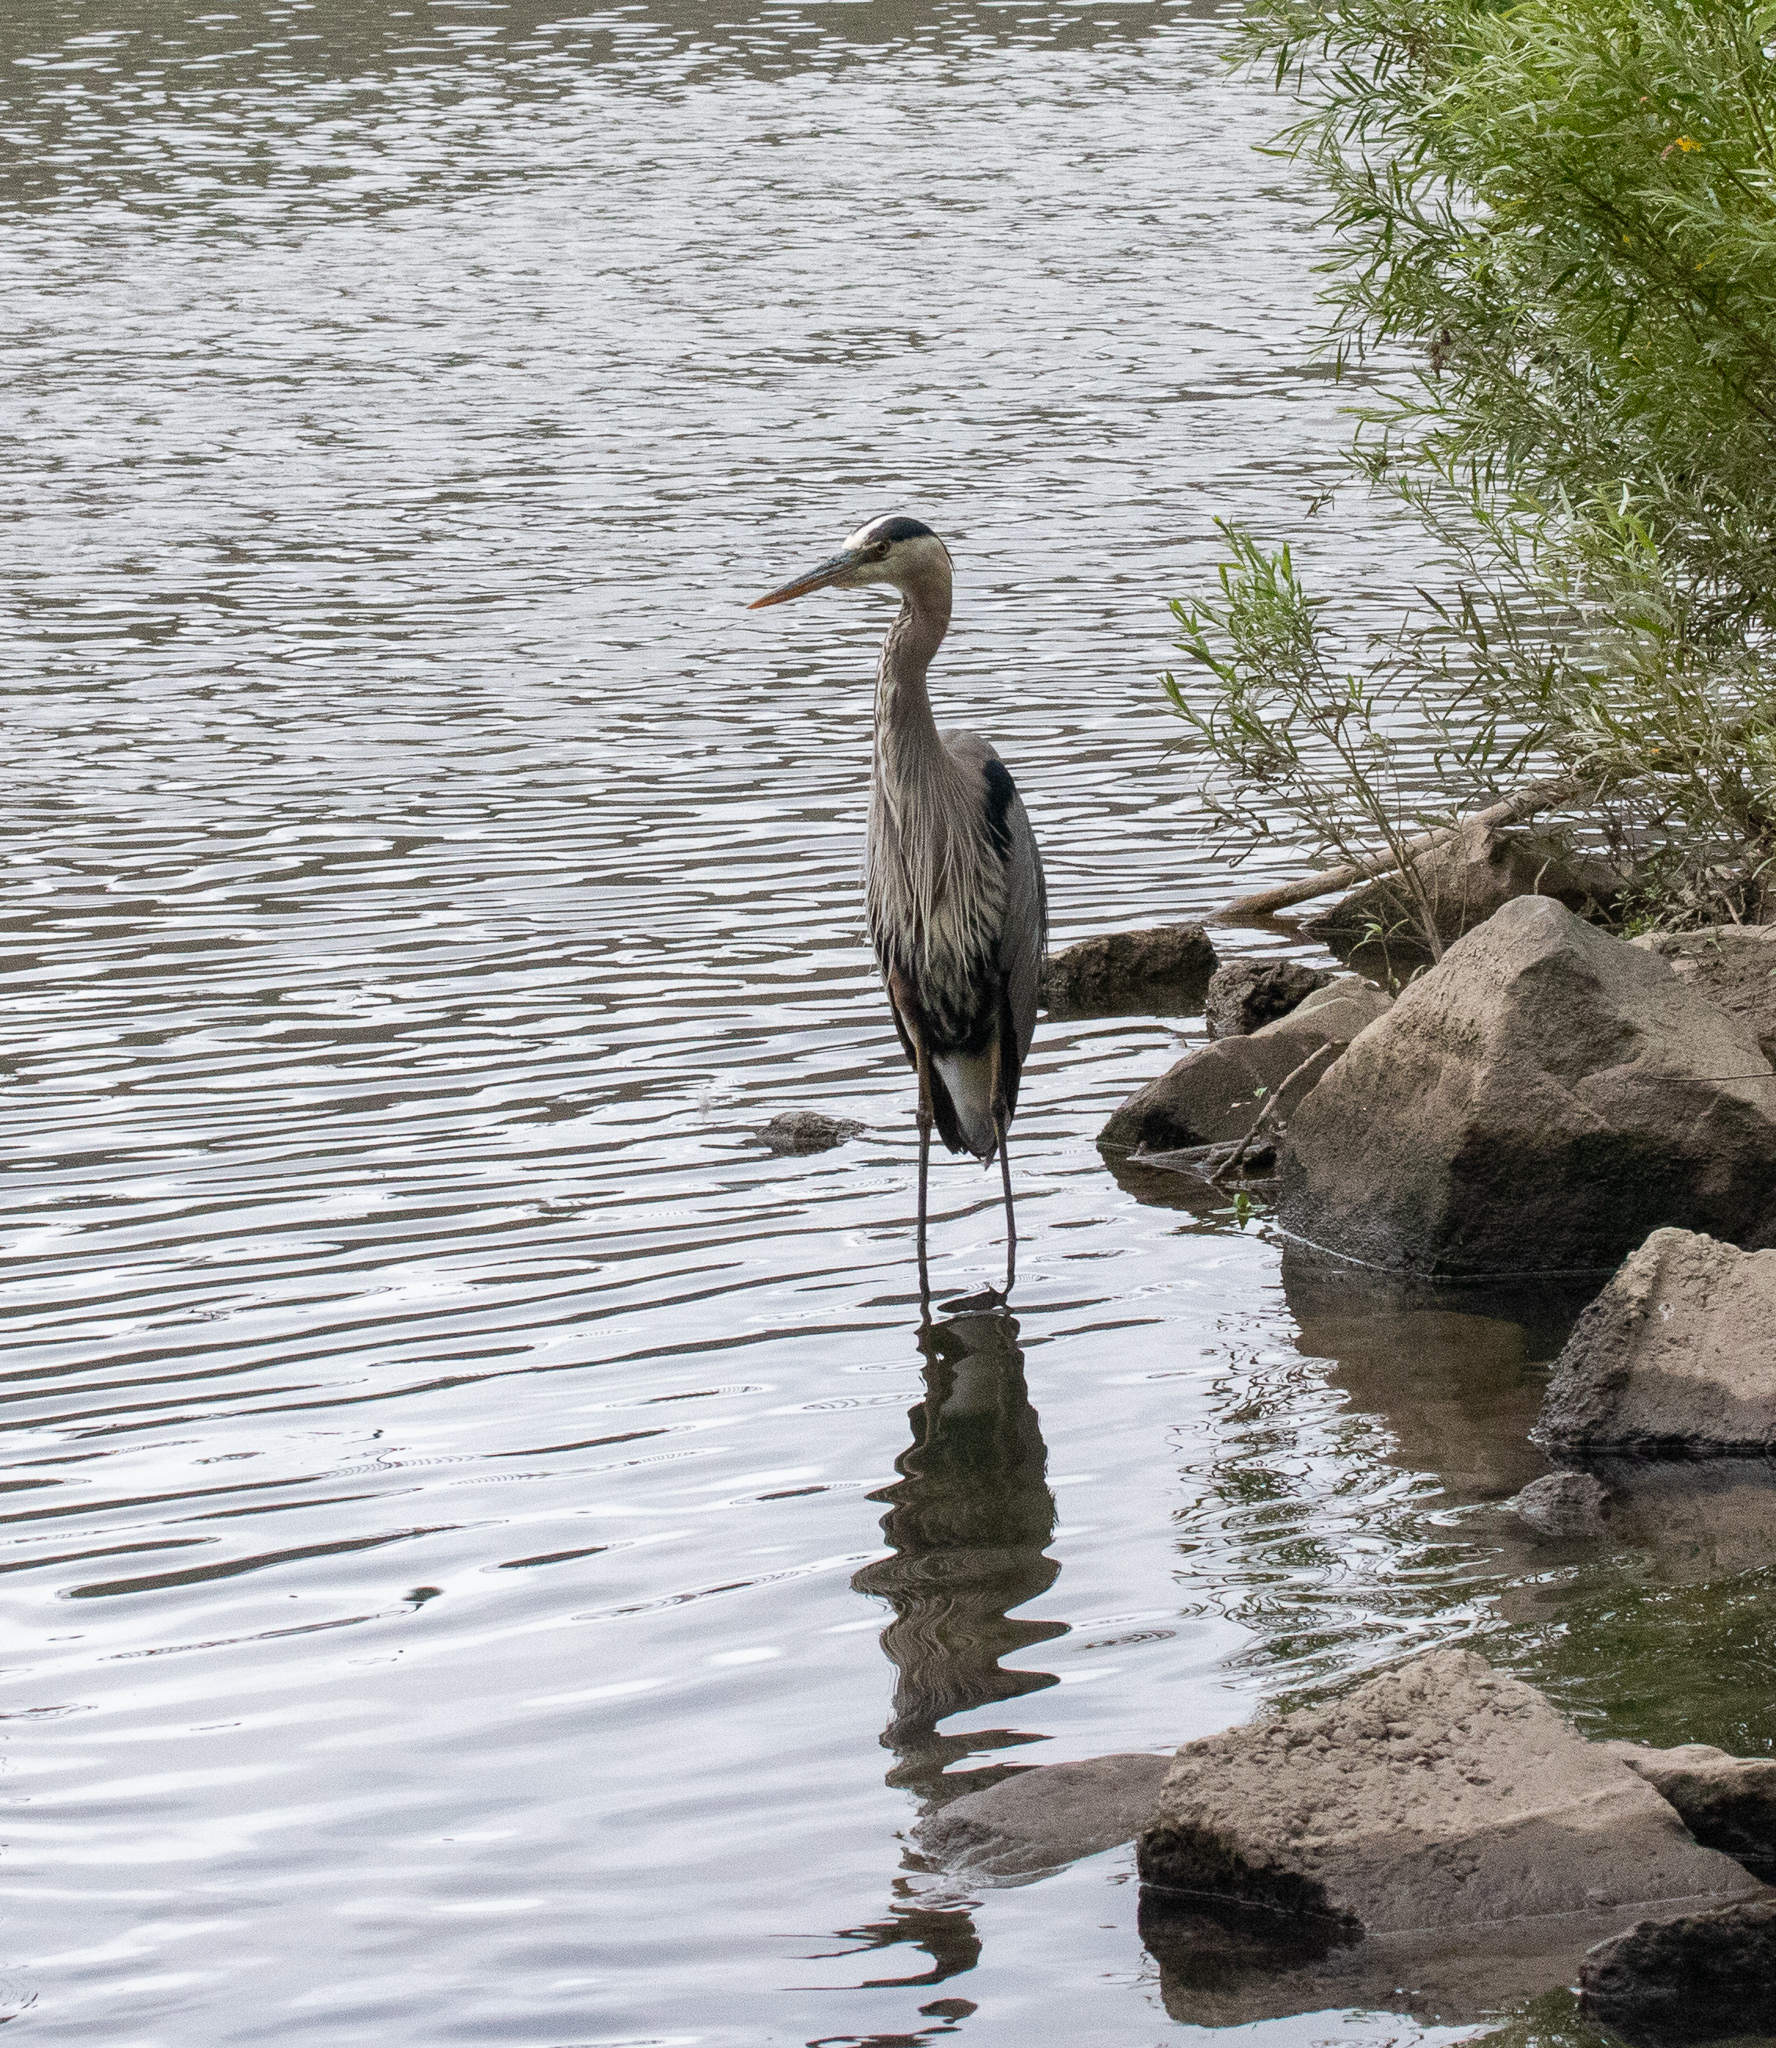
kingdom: Animalia
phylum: Chordata
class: Aves
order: Pelecaniformes
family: Ardeidae
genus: Ardea
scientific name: Ardea herodias
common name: Great blue heron
